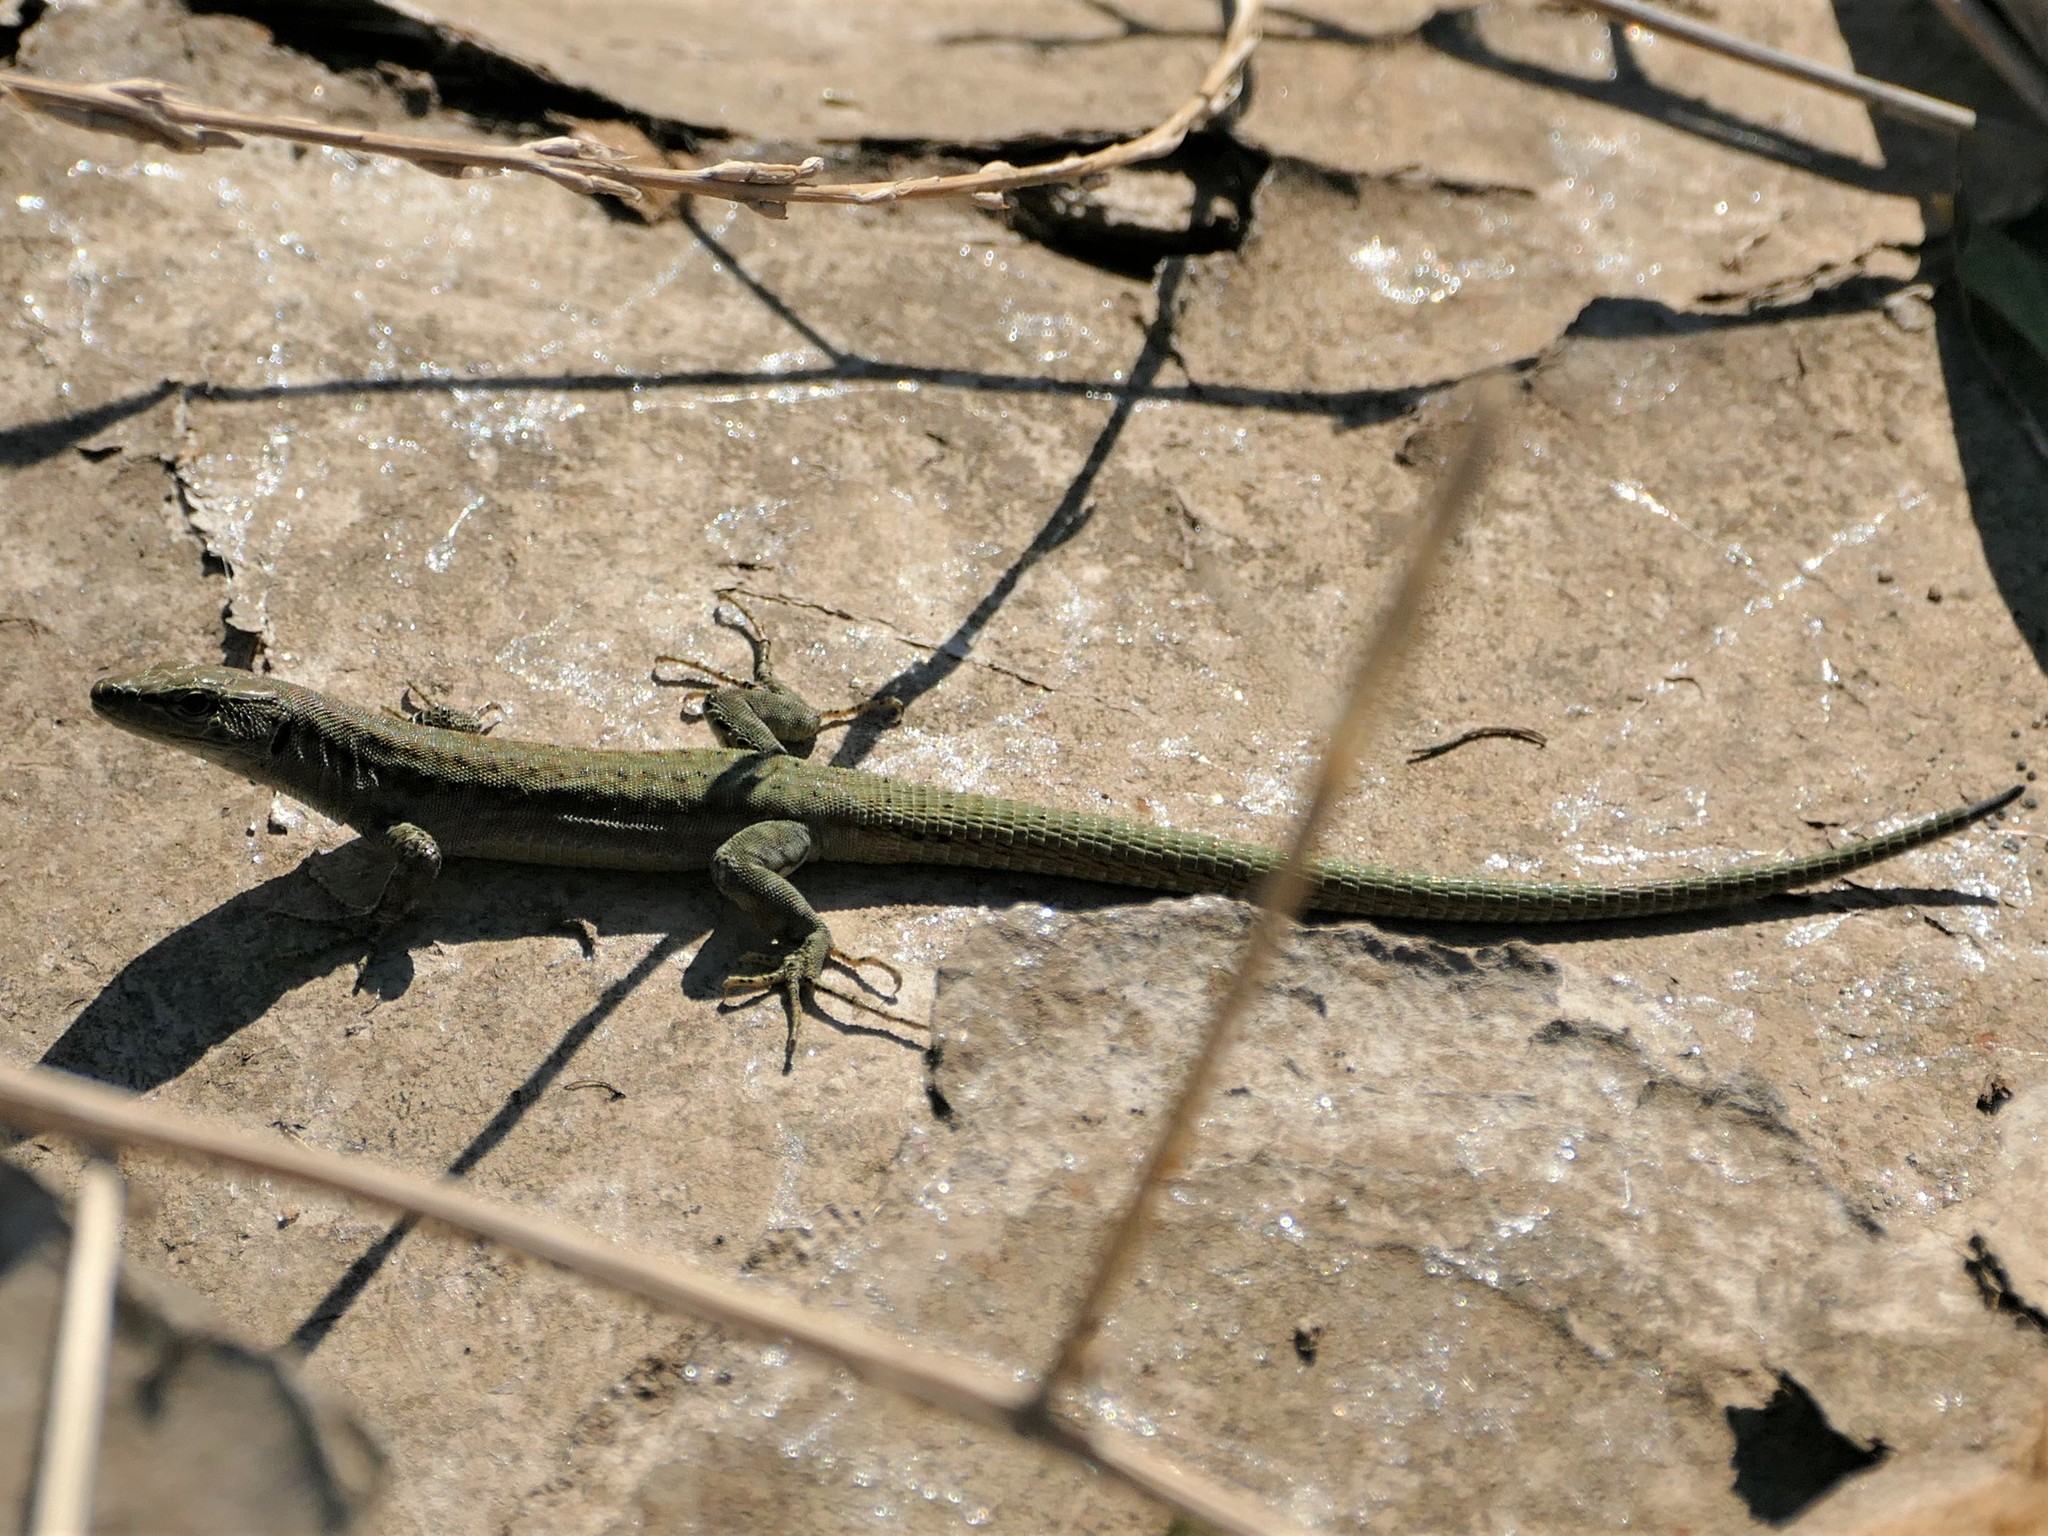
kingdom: Animalia
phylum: Chordata
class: Squamata
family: Lacertidae
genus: Podarcis
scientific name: Podarcis virescens
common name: Geniez’s wall lizard
